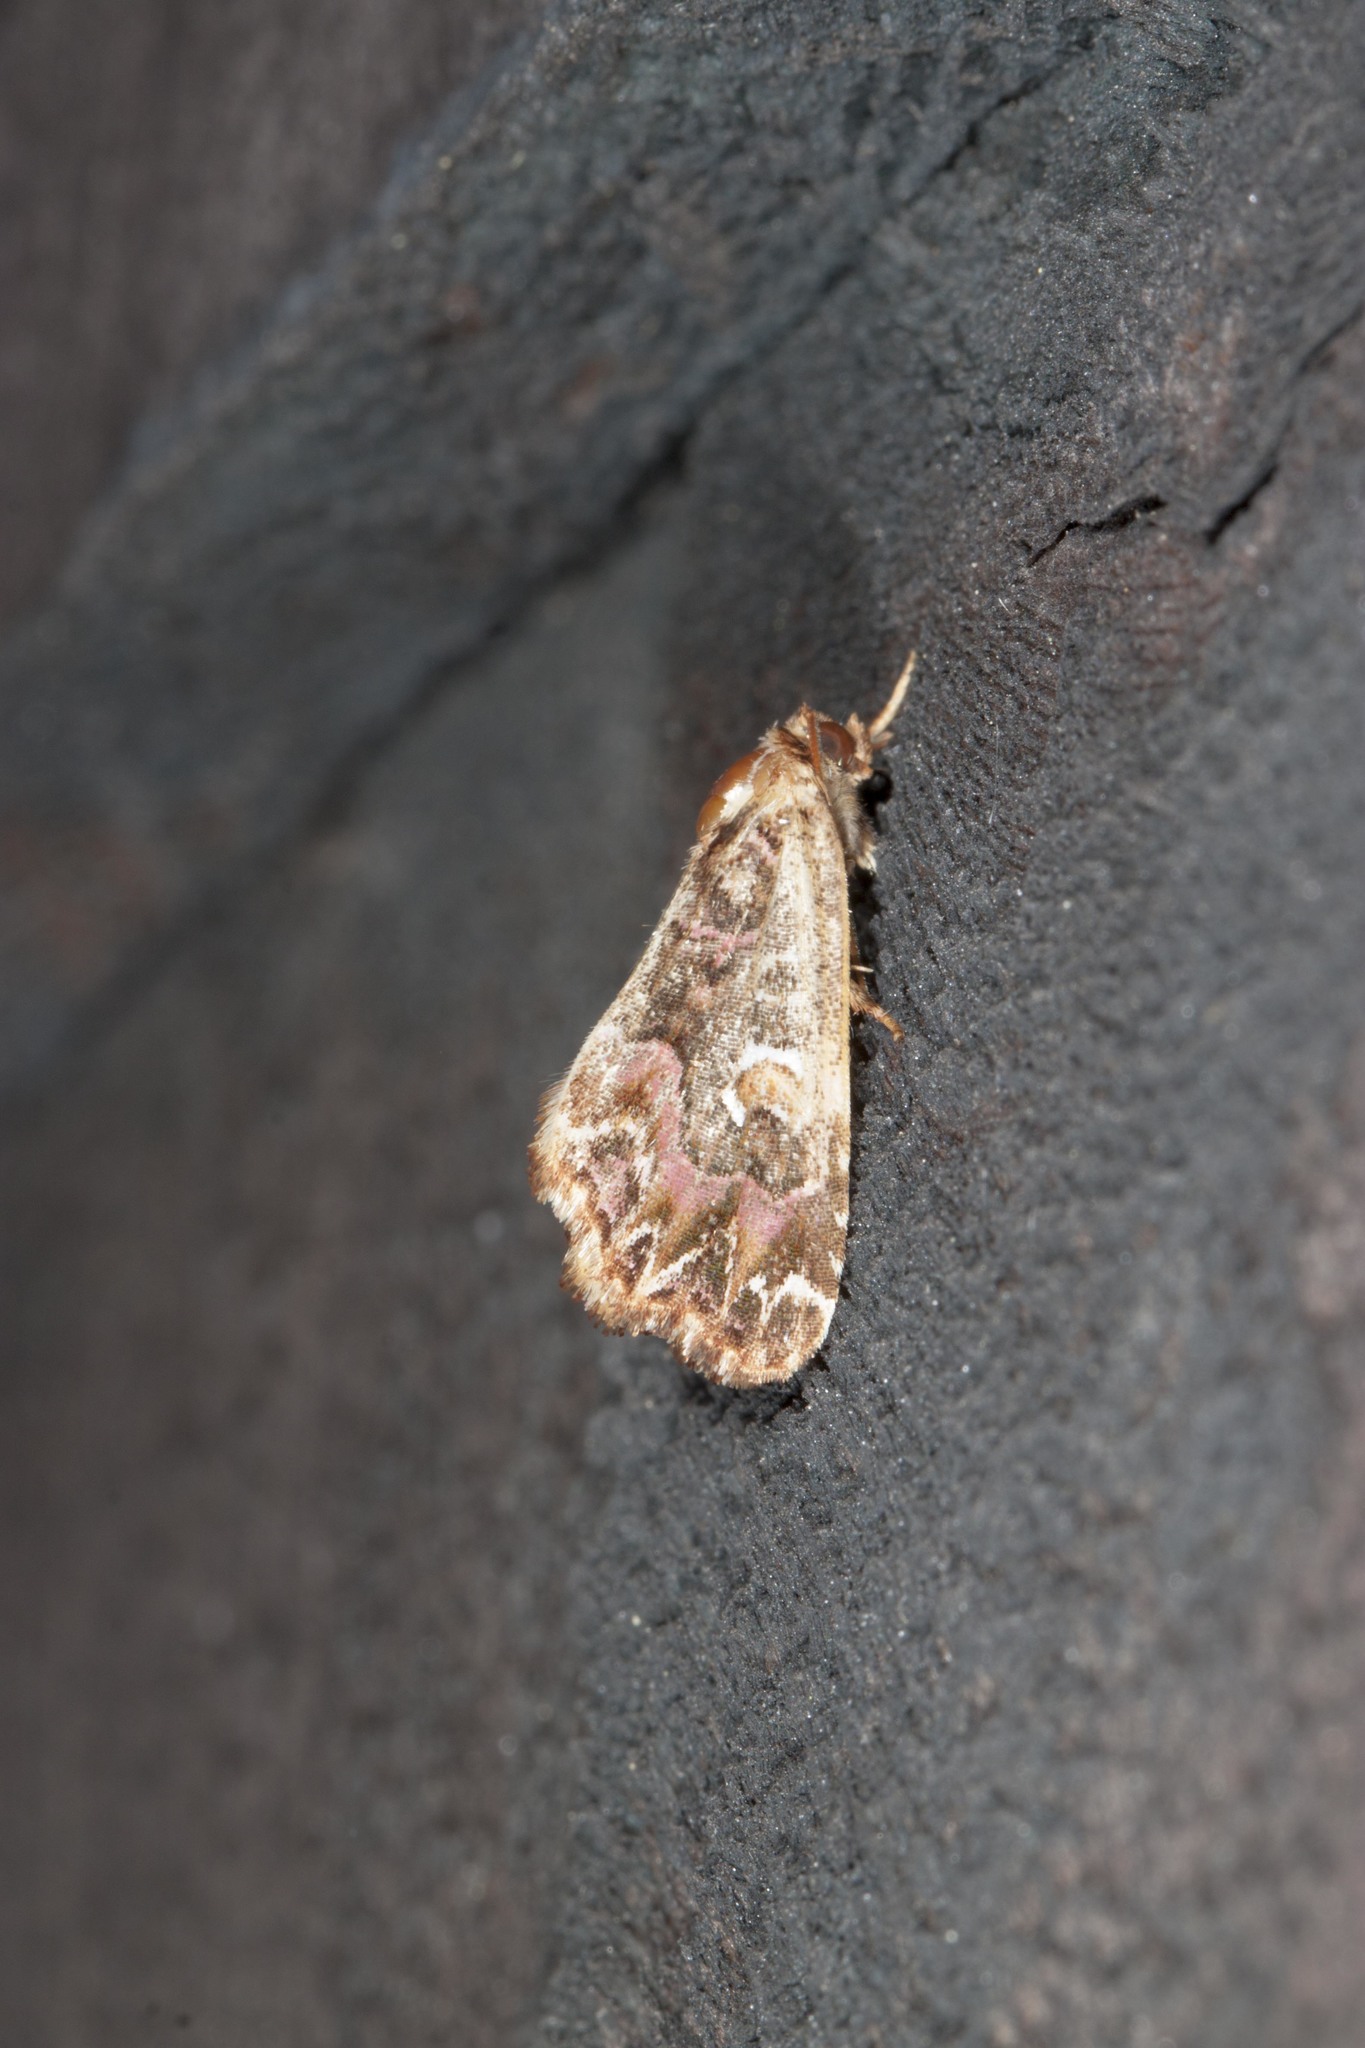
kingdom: Animalia
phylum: Arthropoda
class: Insecta
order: Lepidoptera
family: Noctuidae
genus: Callopistria
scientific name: Callopistria mollissima
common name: Pink-shaded fern moth
